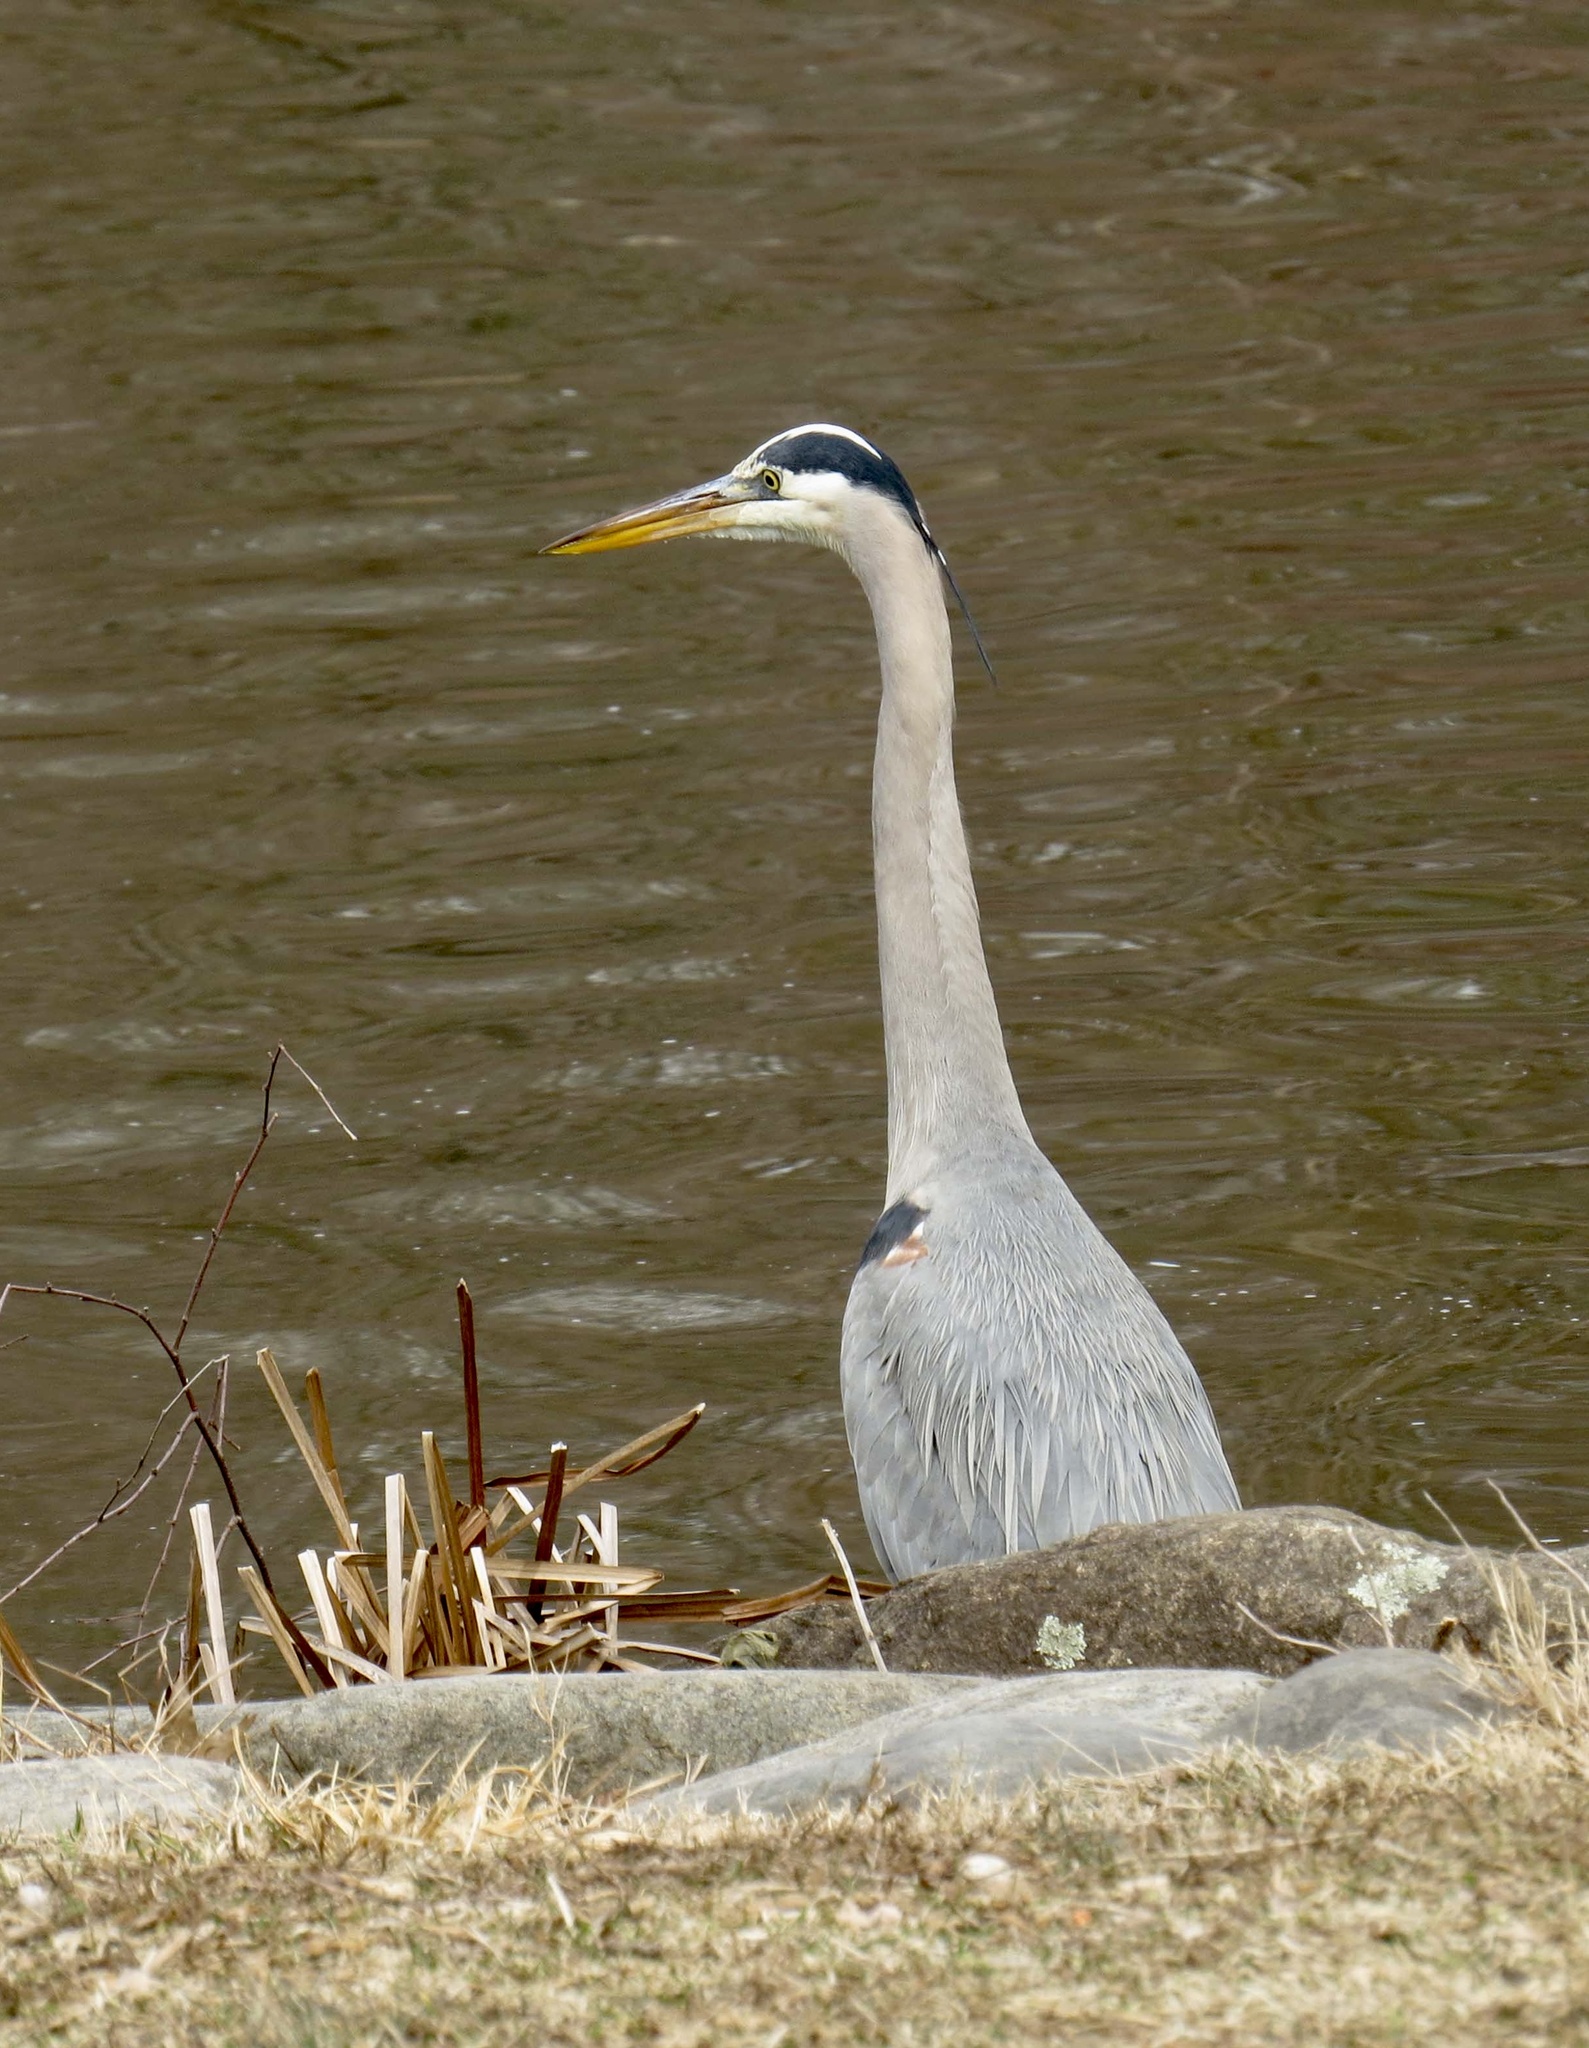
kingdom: Animalia
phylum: Chordata
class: Aves
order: Pelecaniformes
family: Ardeidae
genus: Ardea
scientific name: Ardea herodias
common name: Great blue heron
